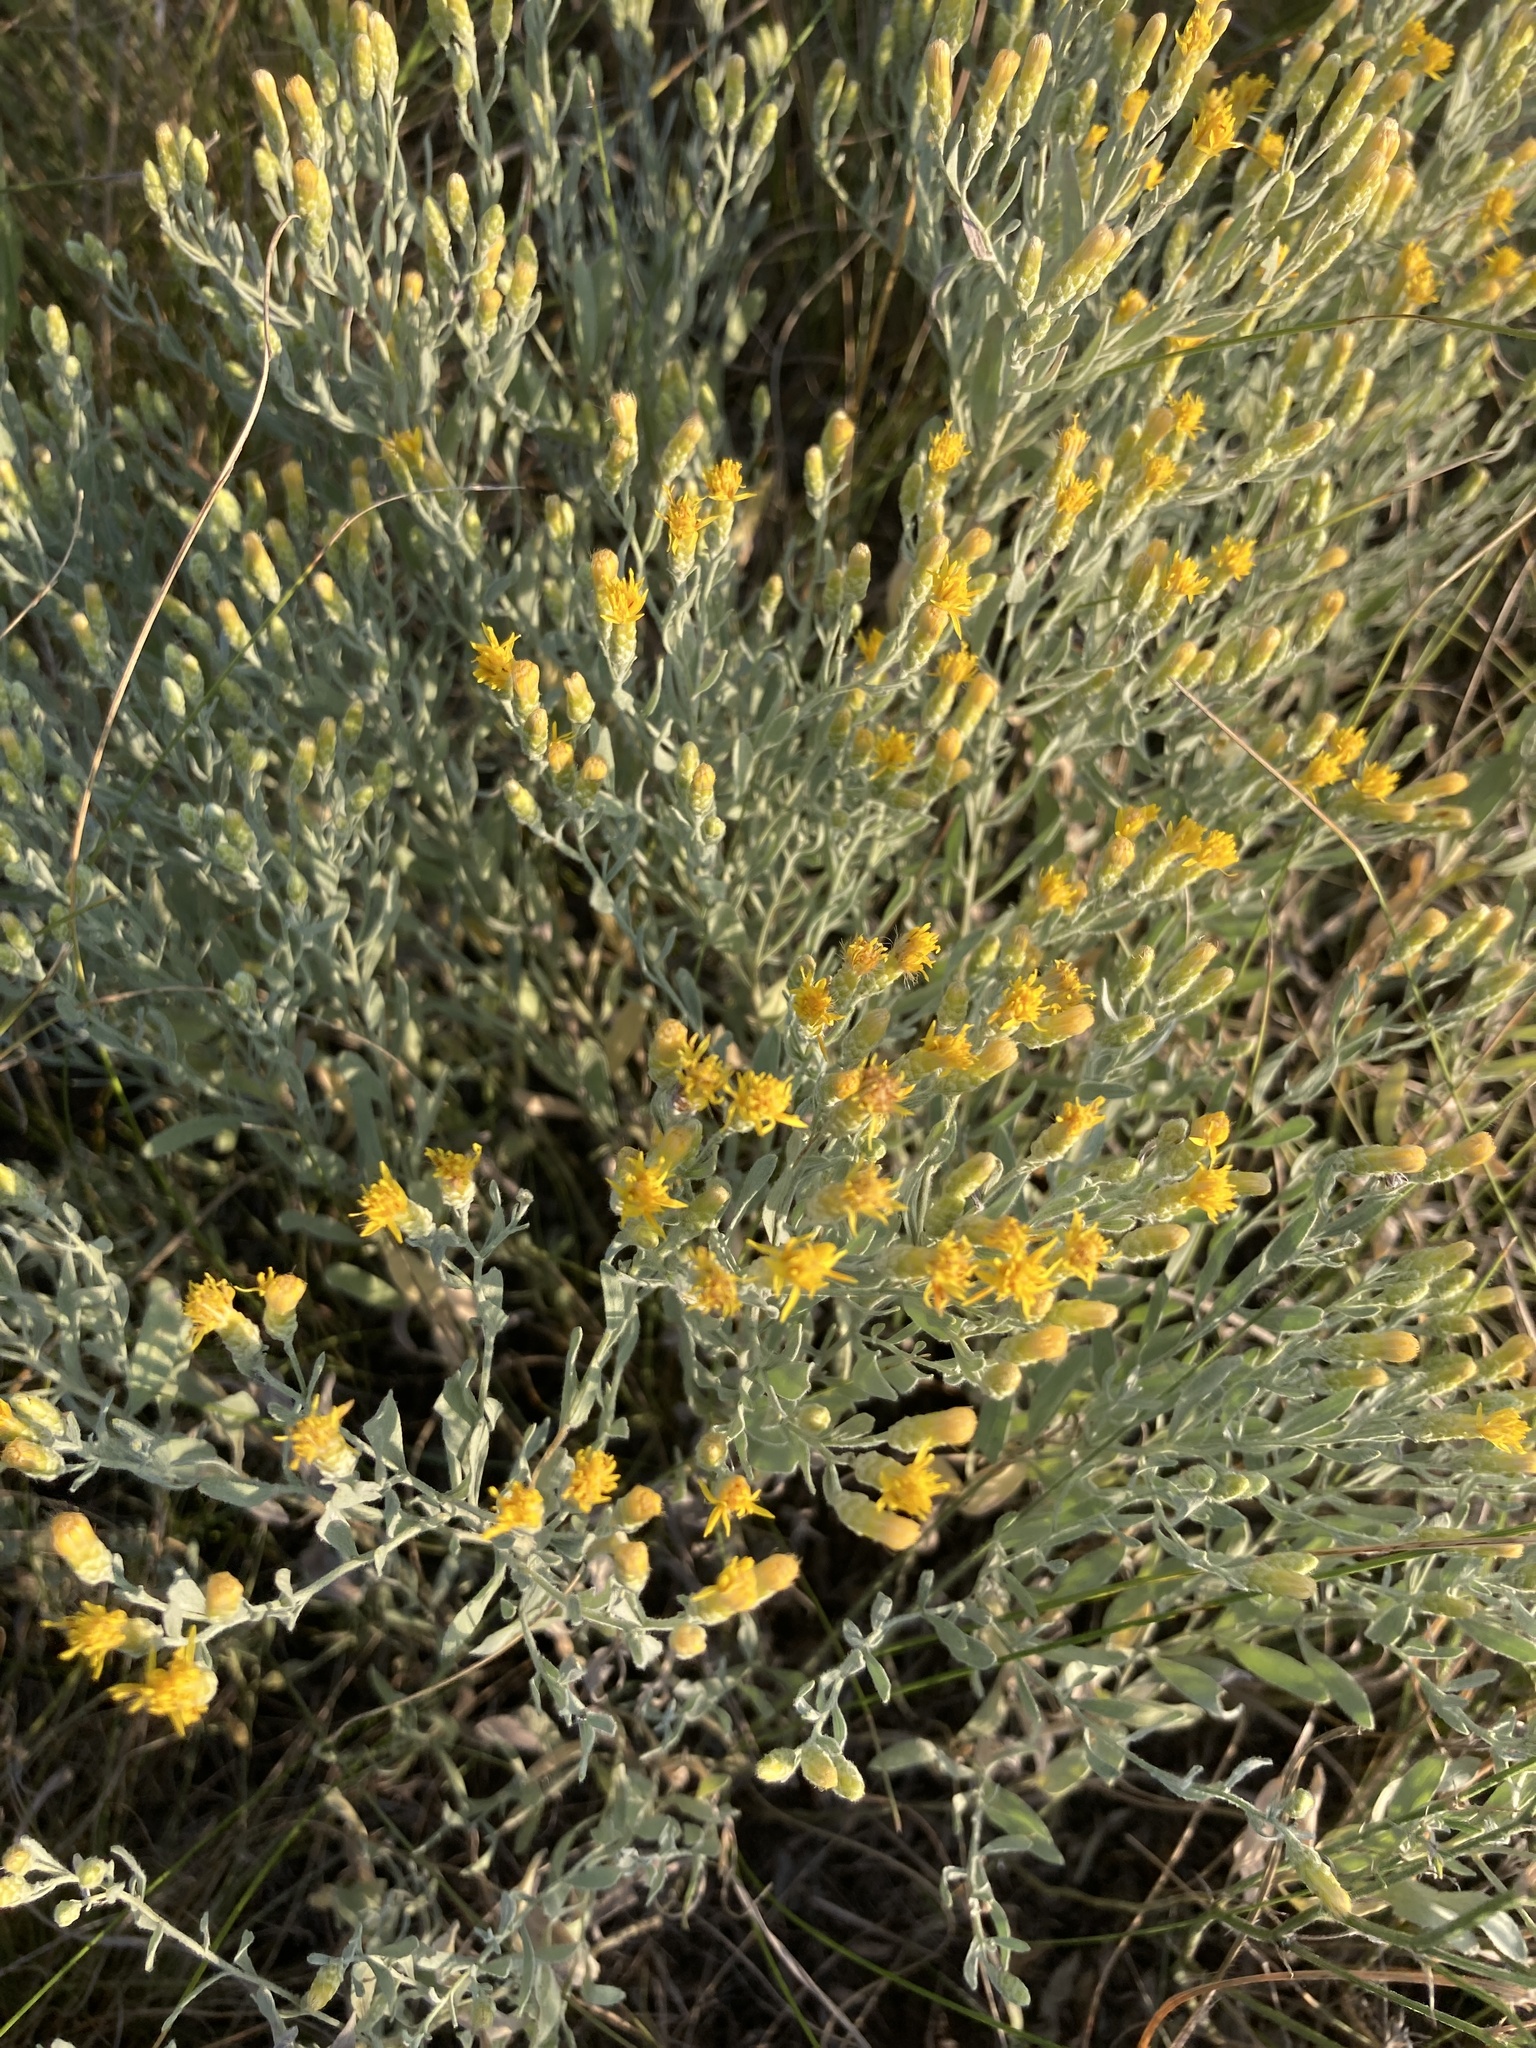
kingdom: Plantae
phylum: Tracheophyta
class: Magnoliopsida
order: Asterales
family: Asteraceae
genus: Galatella
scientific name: Galatella villosa
